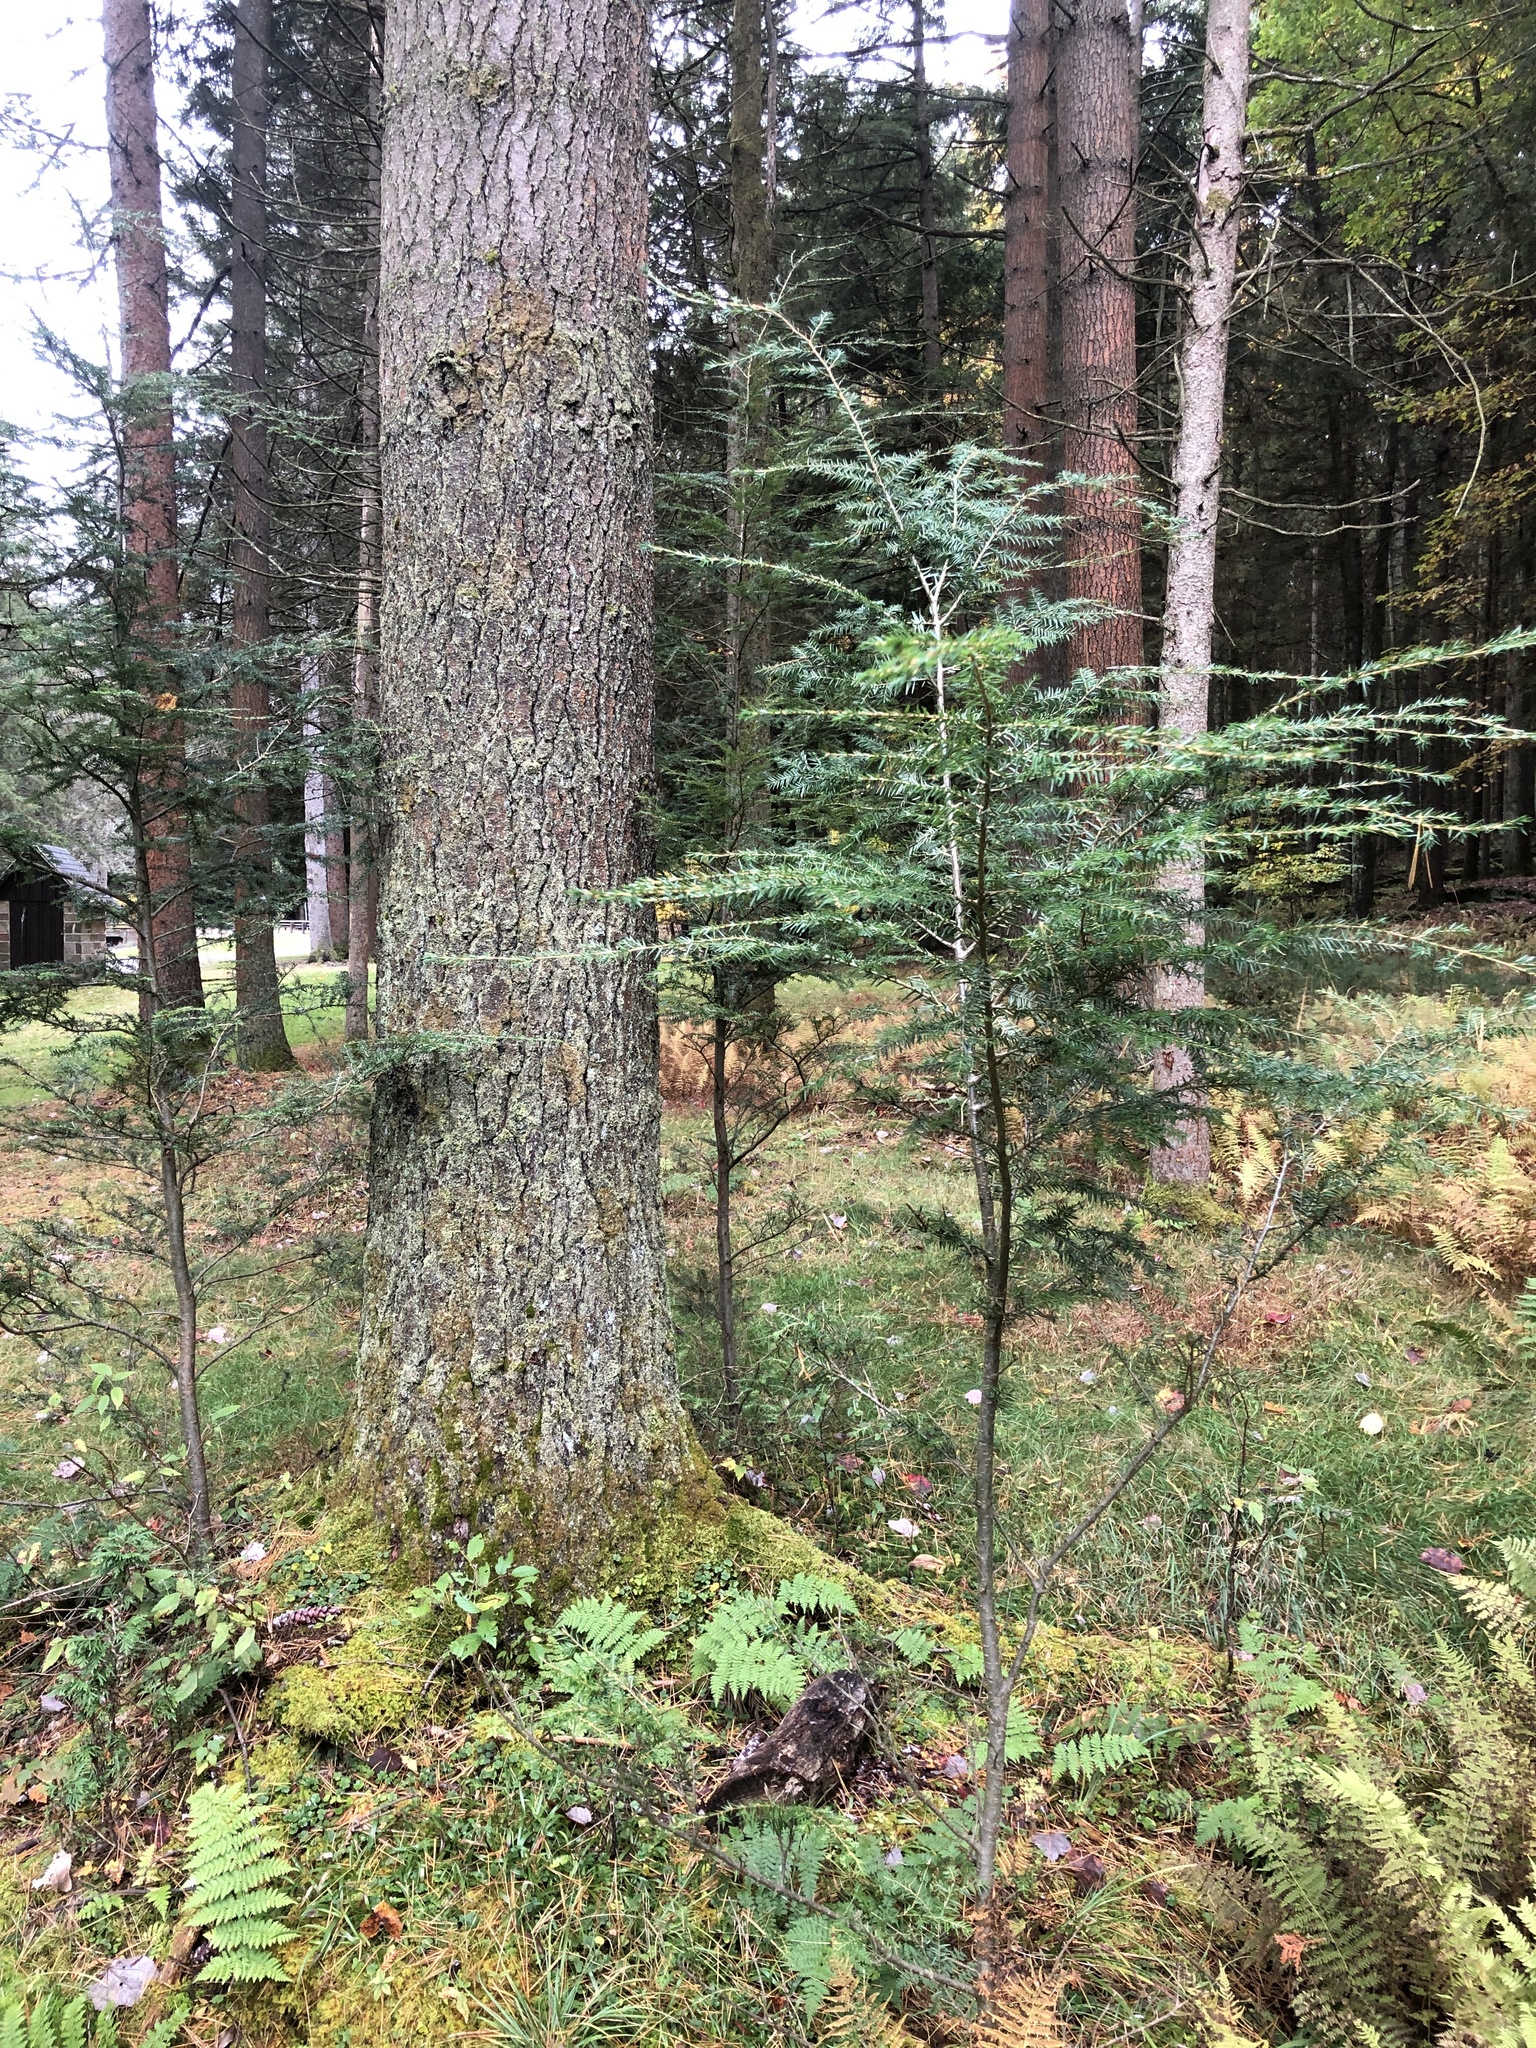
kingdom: Plantae
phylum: Tracheophyta
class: Pinopsida
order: Pinales
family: Pinaceae
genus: Tsuga
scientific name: Tsuga canadensis
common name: Eastern hemlock
